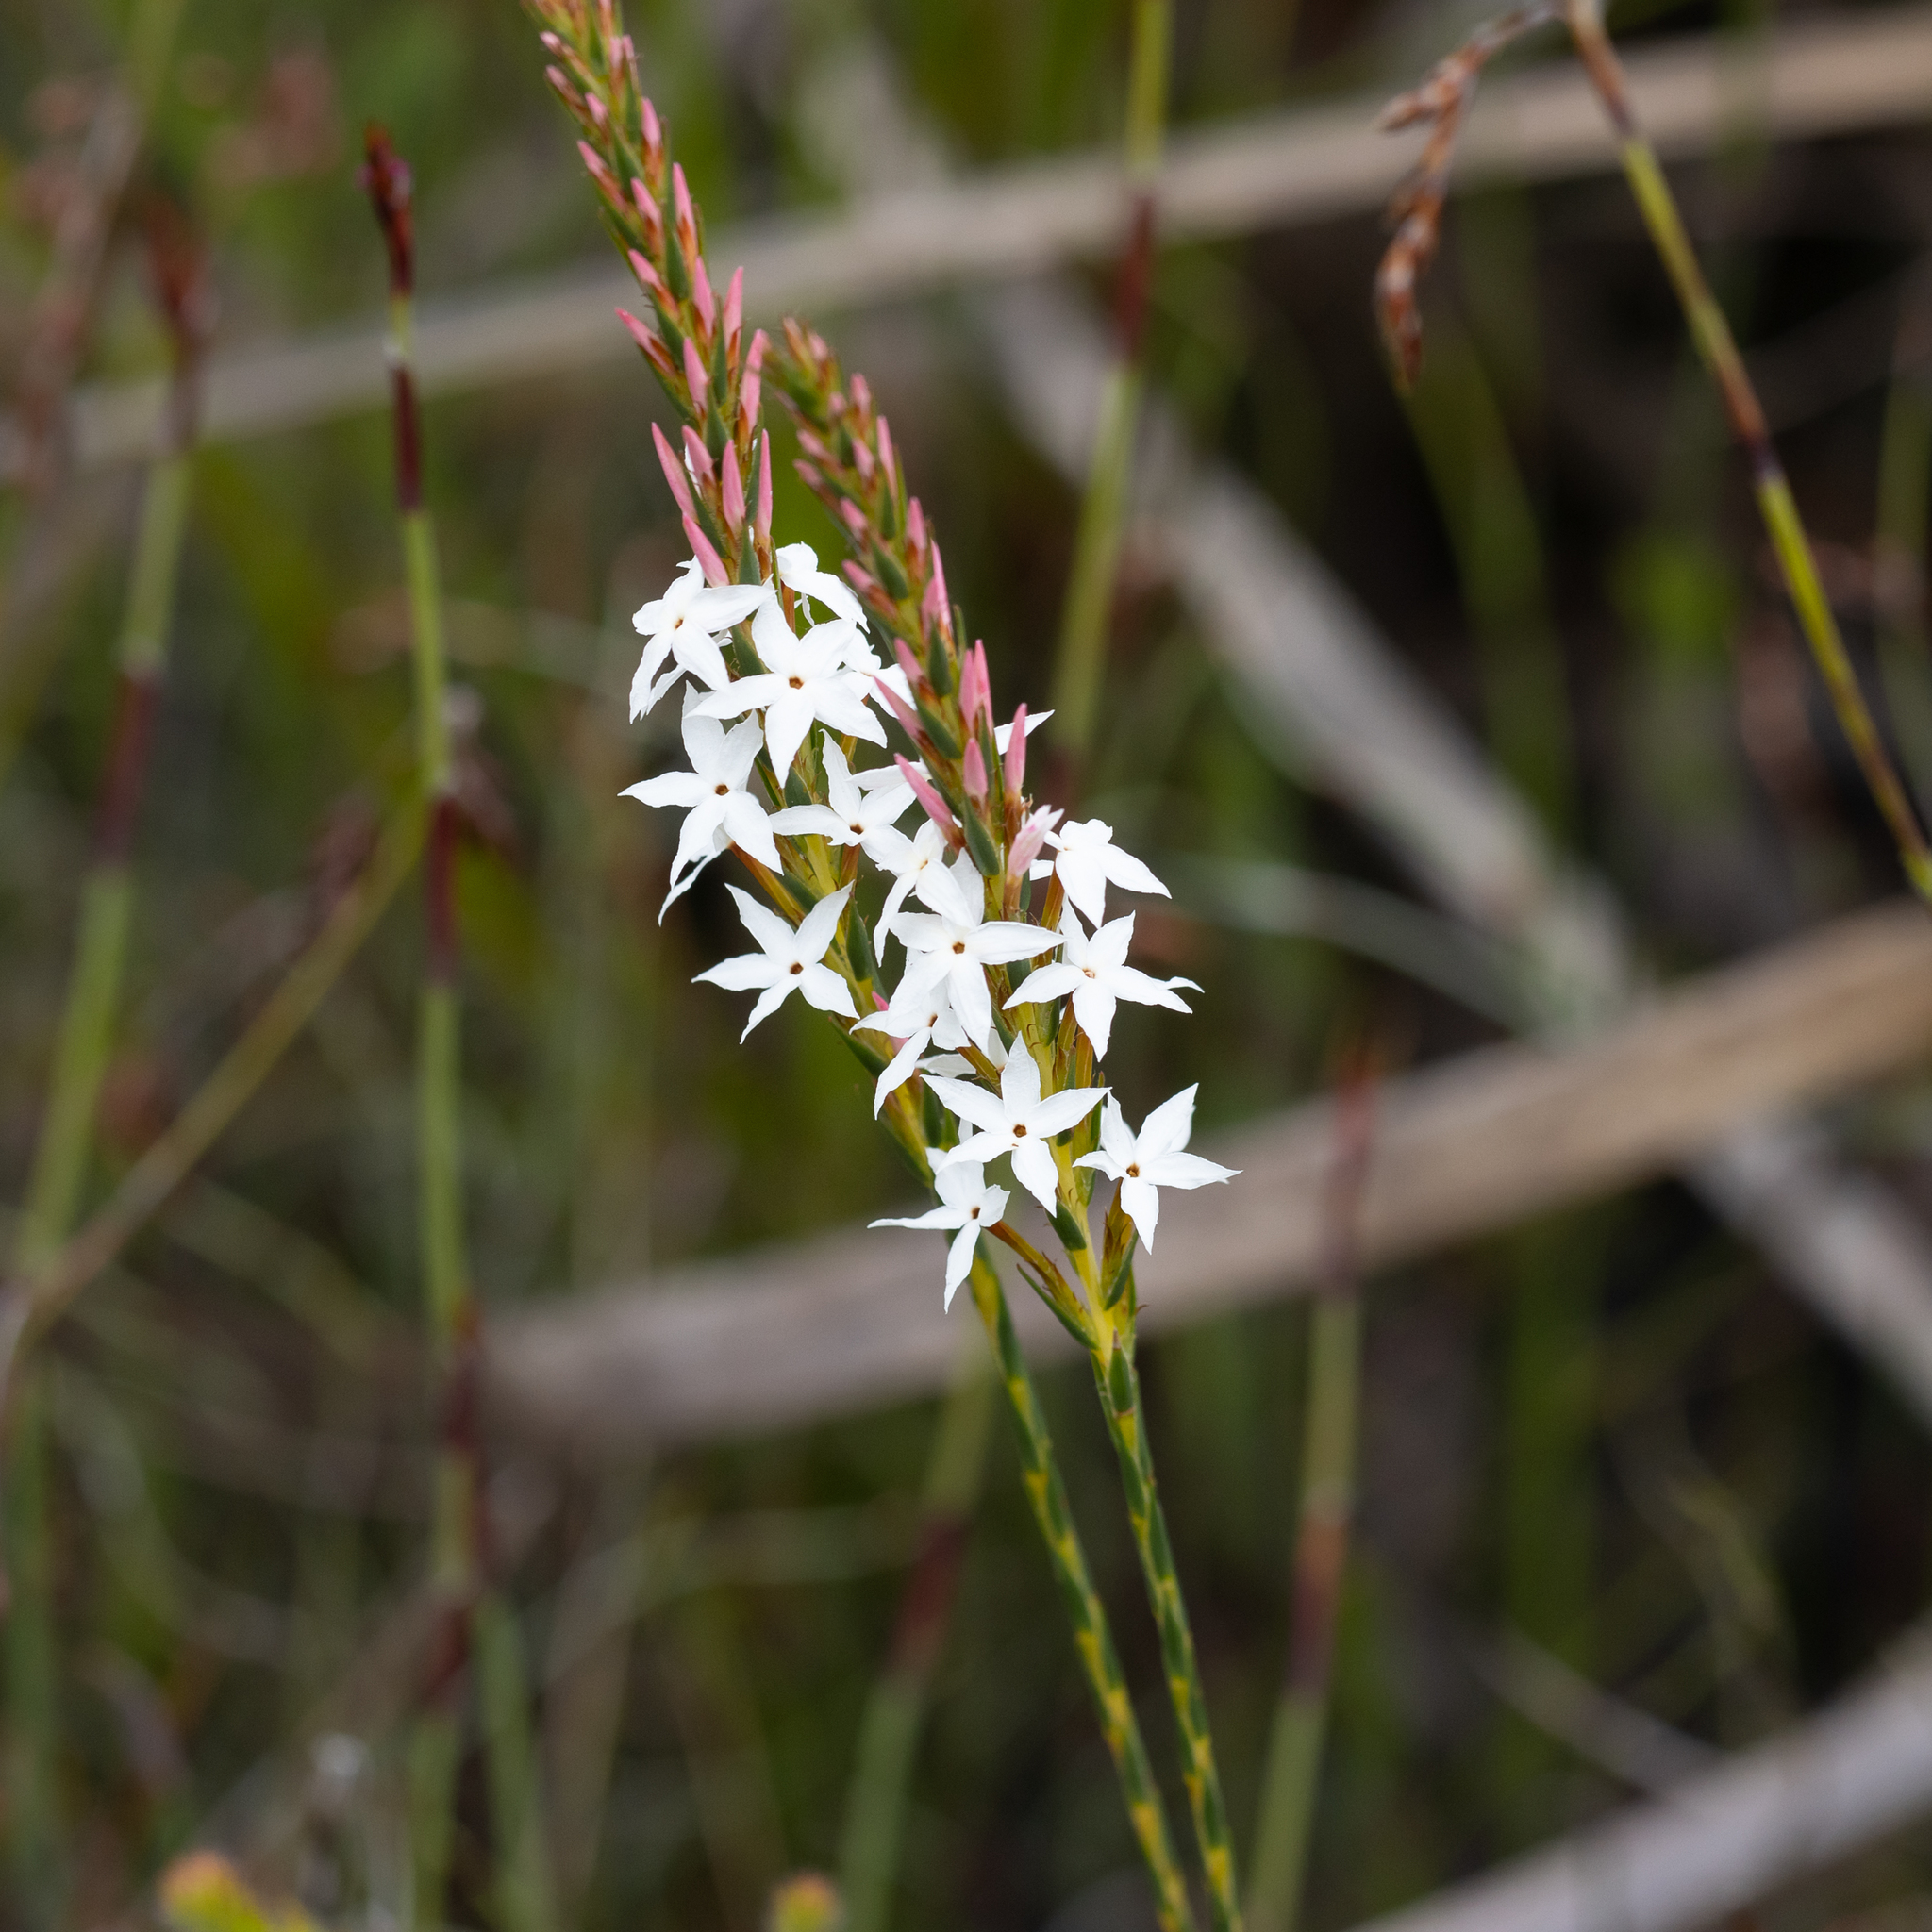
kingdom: Plantae
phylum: Tracheophyta
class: Magnoliopsida
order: Ericales
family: Ericaceae
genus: Lysinema
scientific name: Lysinema conspicuum
